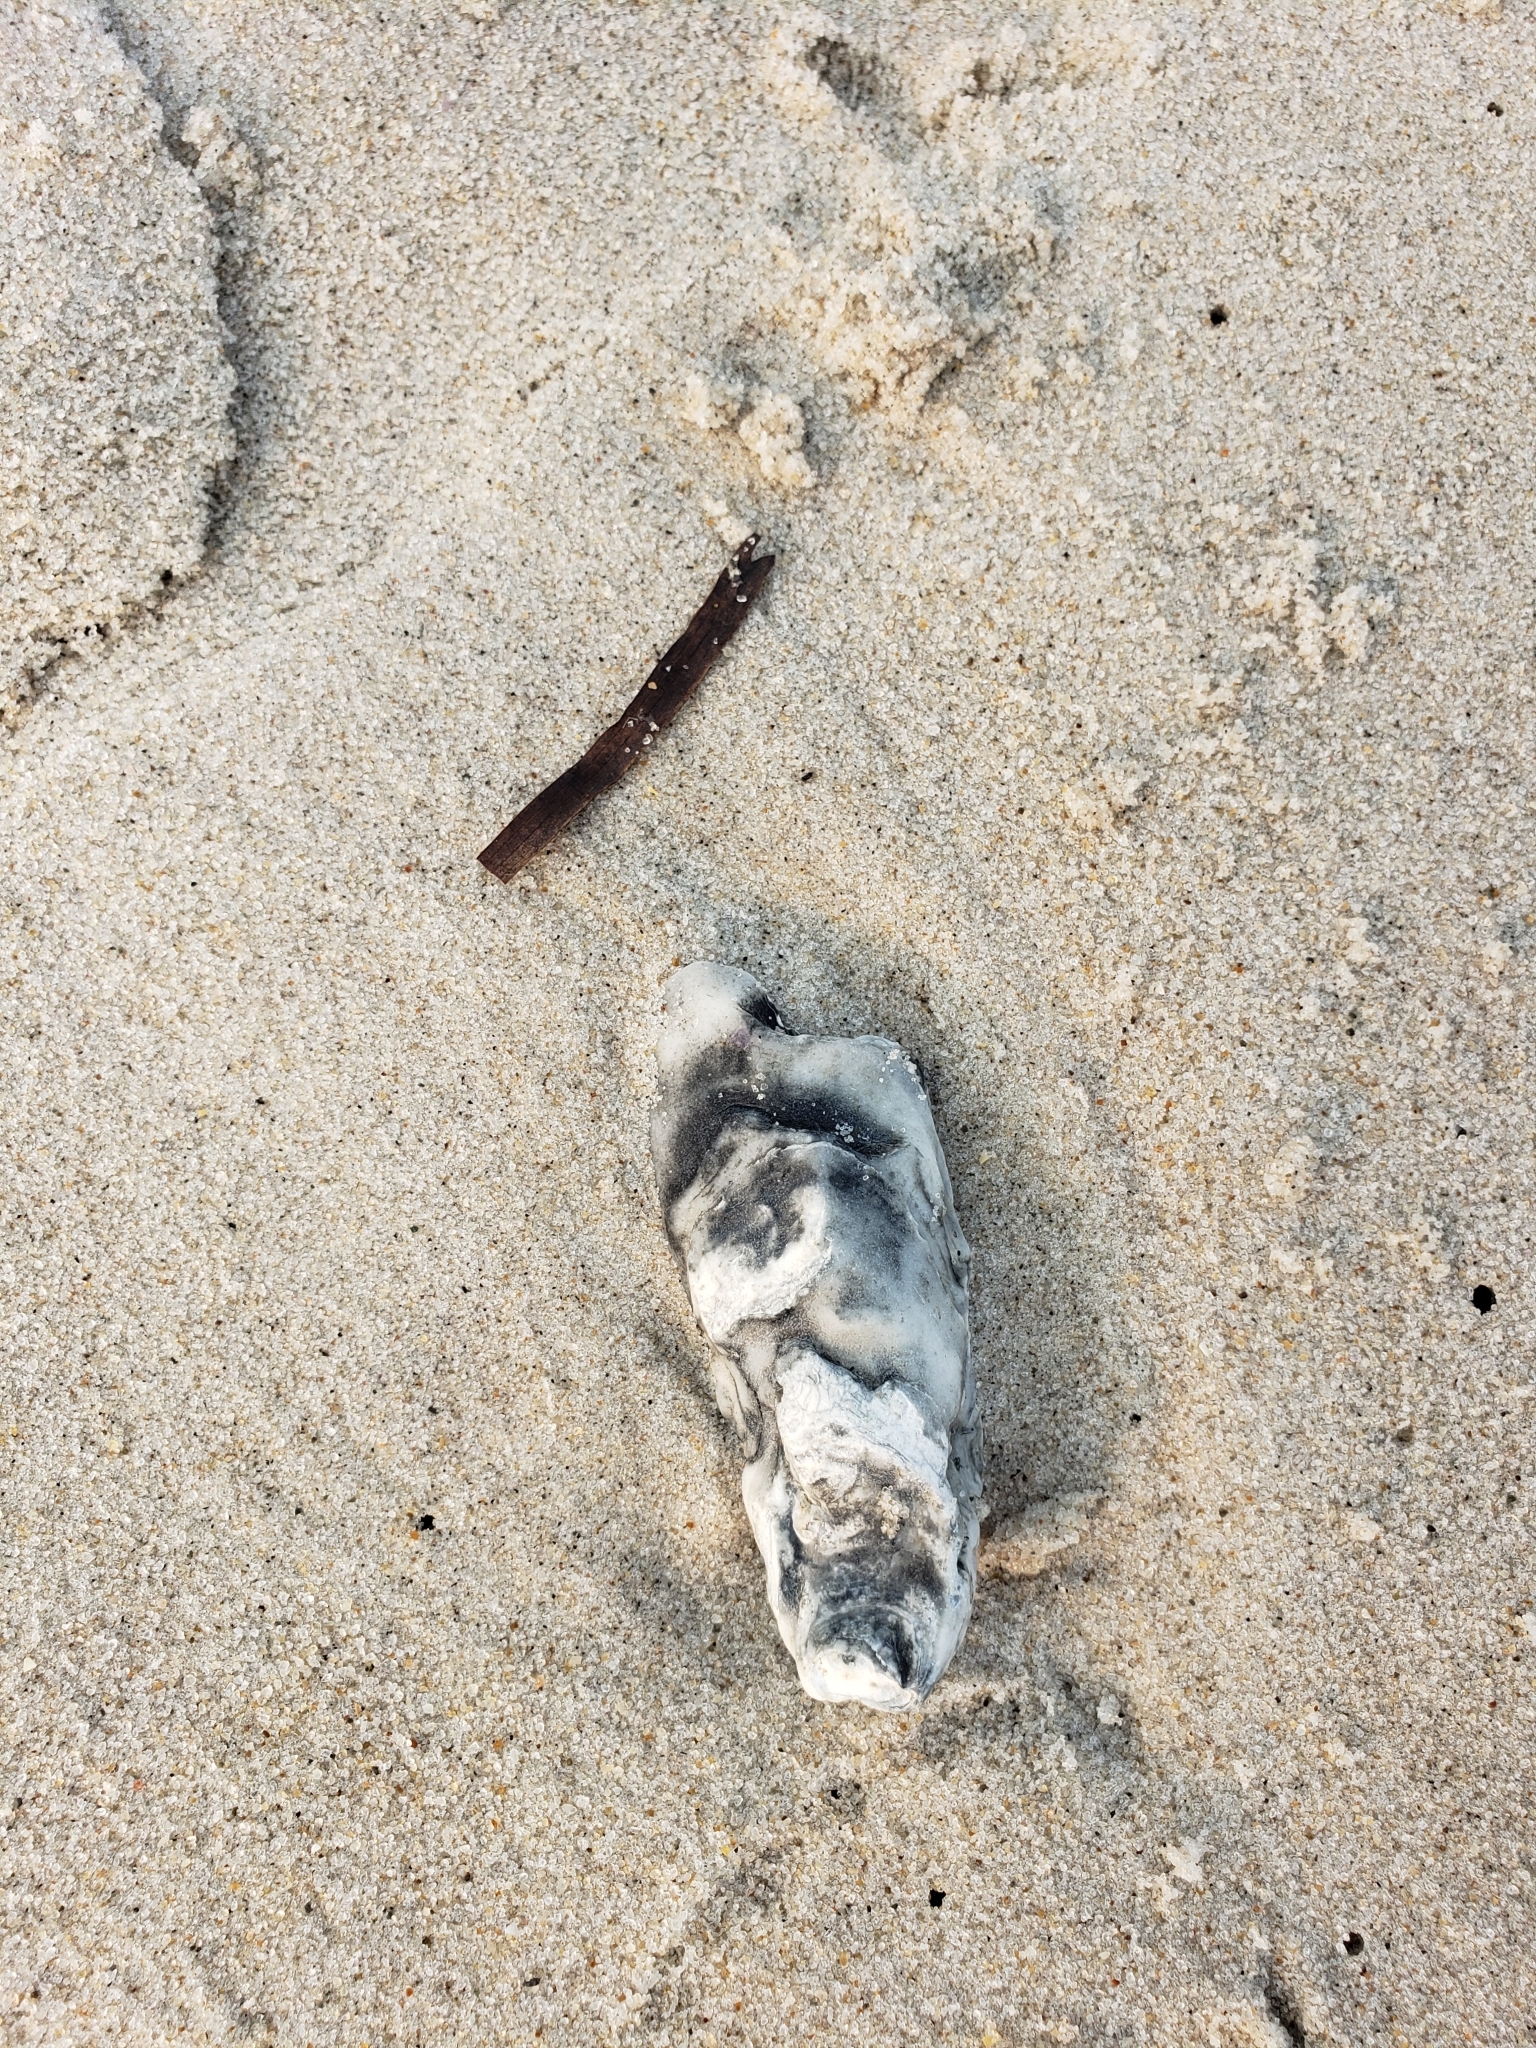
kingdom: Animalia
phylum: Mollusca
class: Bivalvia
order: Ostreida
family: Ostreidae
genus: Crassostrea
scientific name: Crassostrea virginica
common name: American oyster
